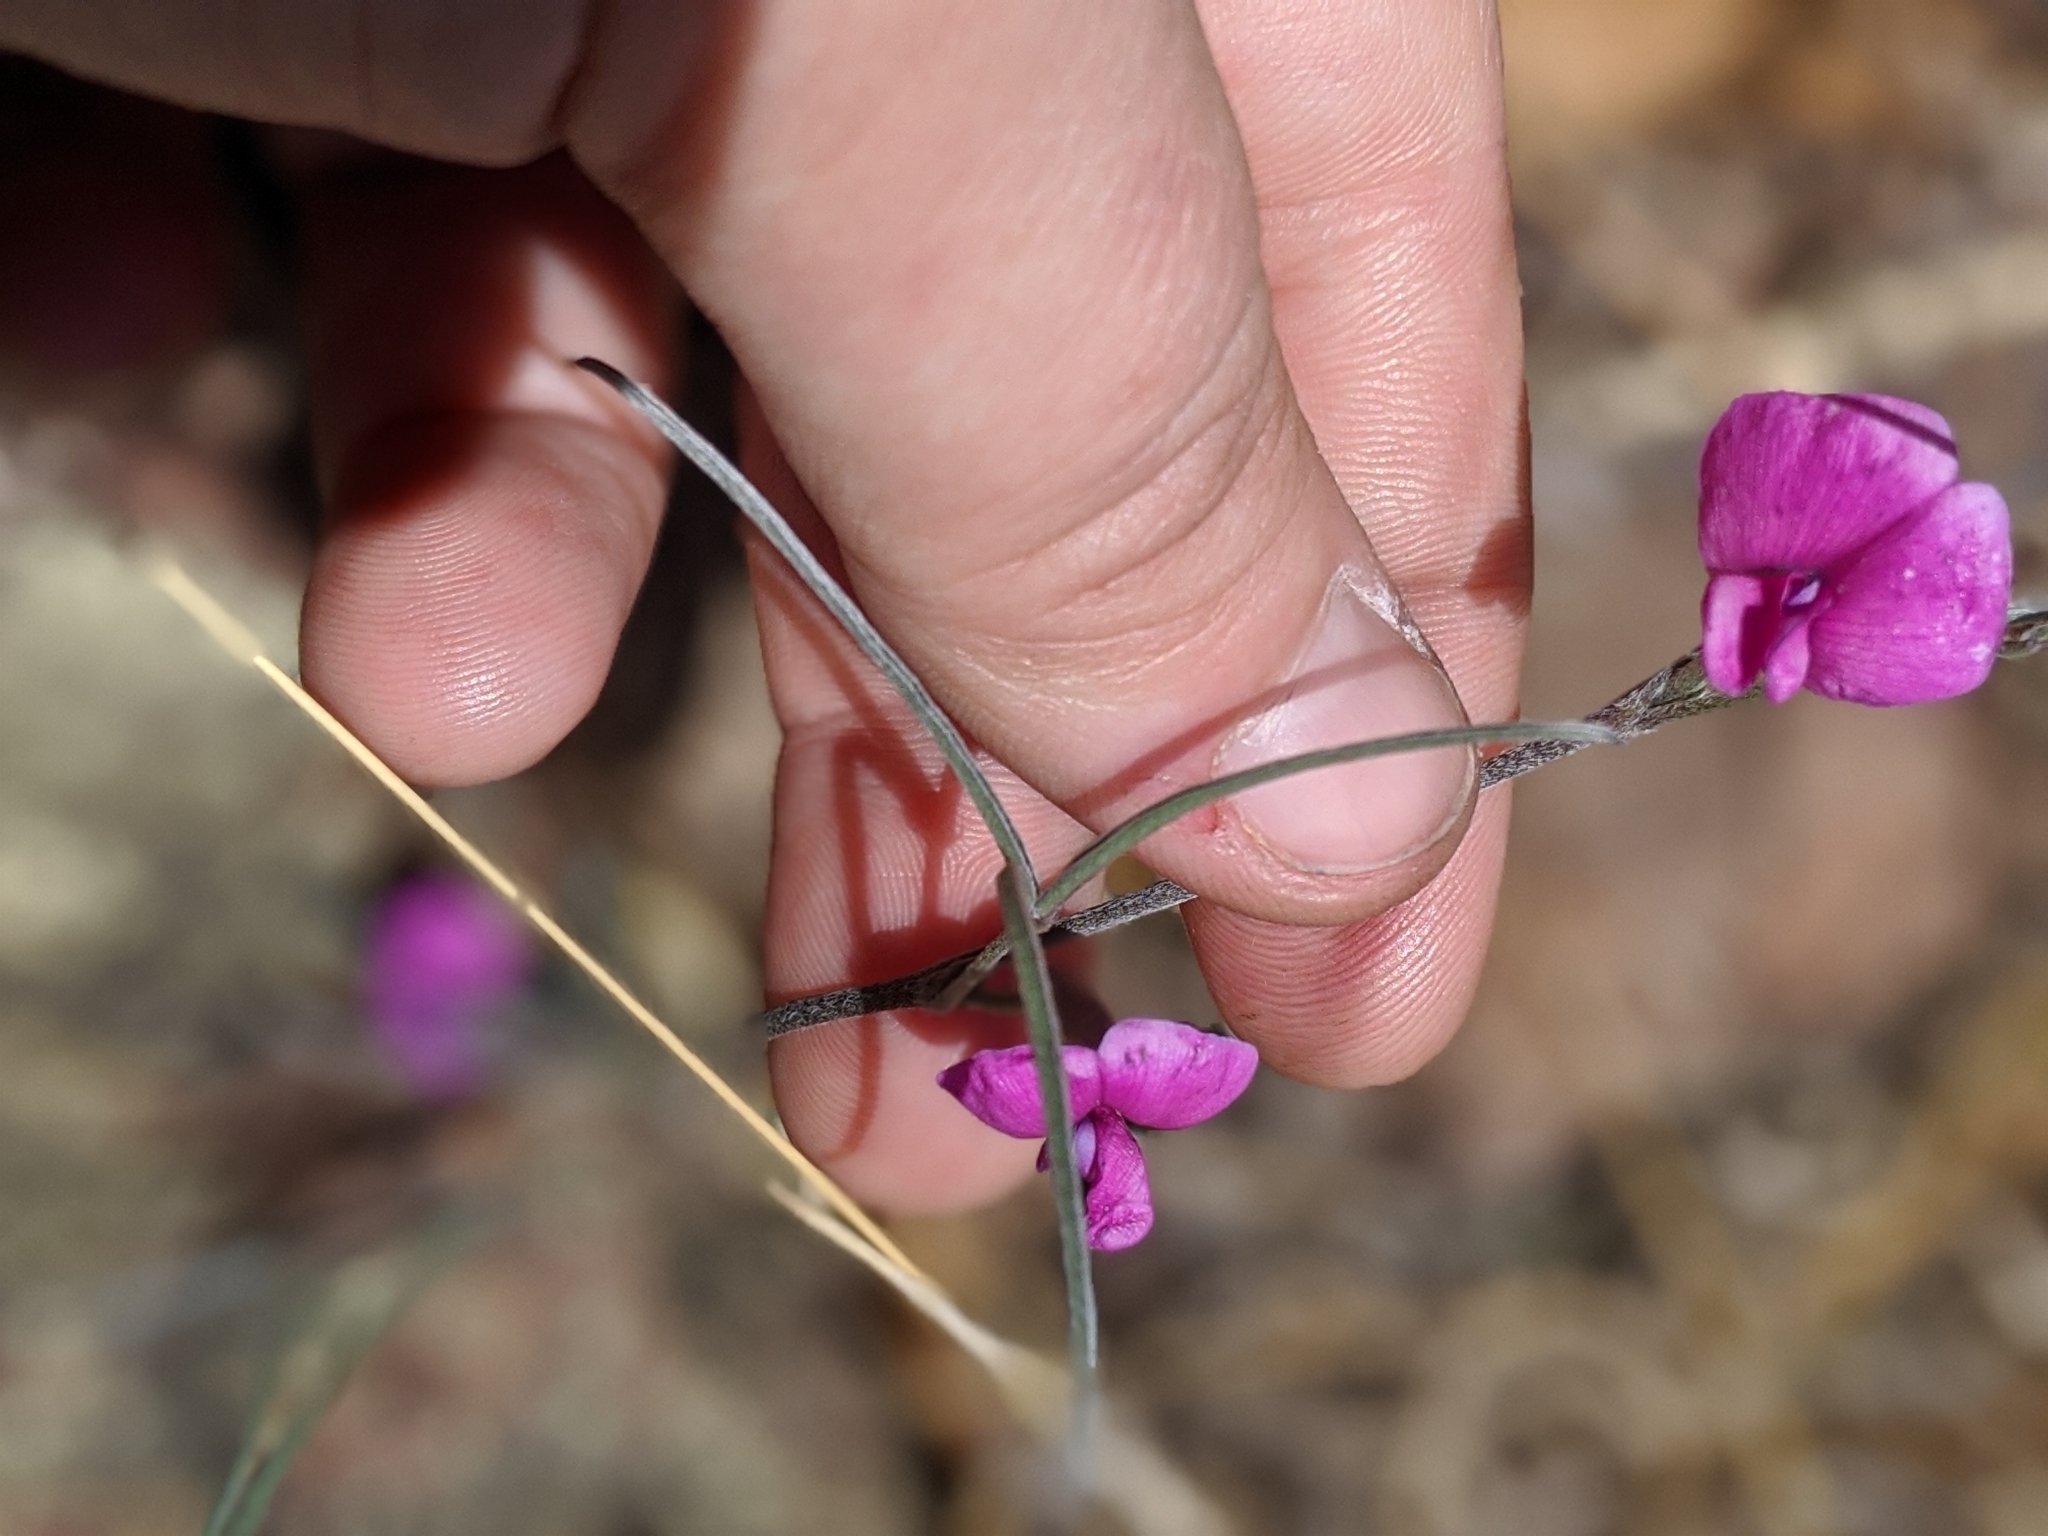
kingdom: Plantae
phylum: Tracheophyta
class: Magnoliopsida
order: Fabales
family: Fabaceae
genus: Cologania
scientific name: Cologania angustifolia
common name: Longleaf cologania
